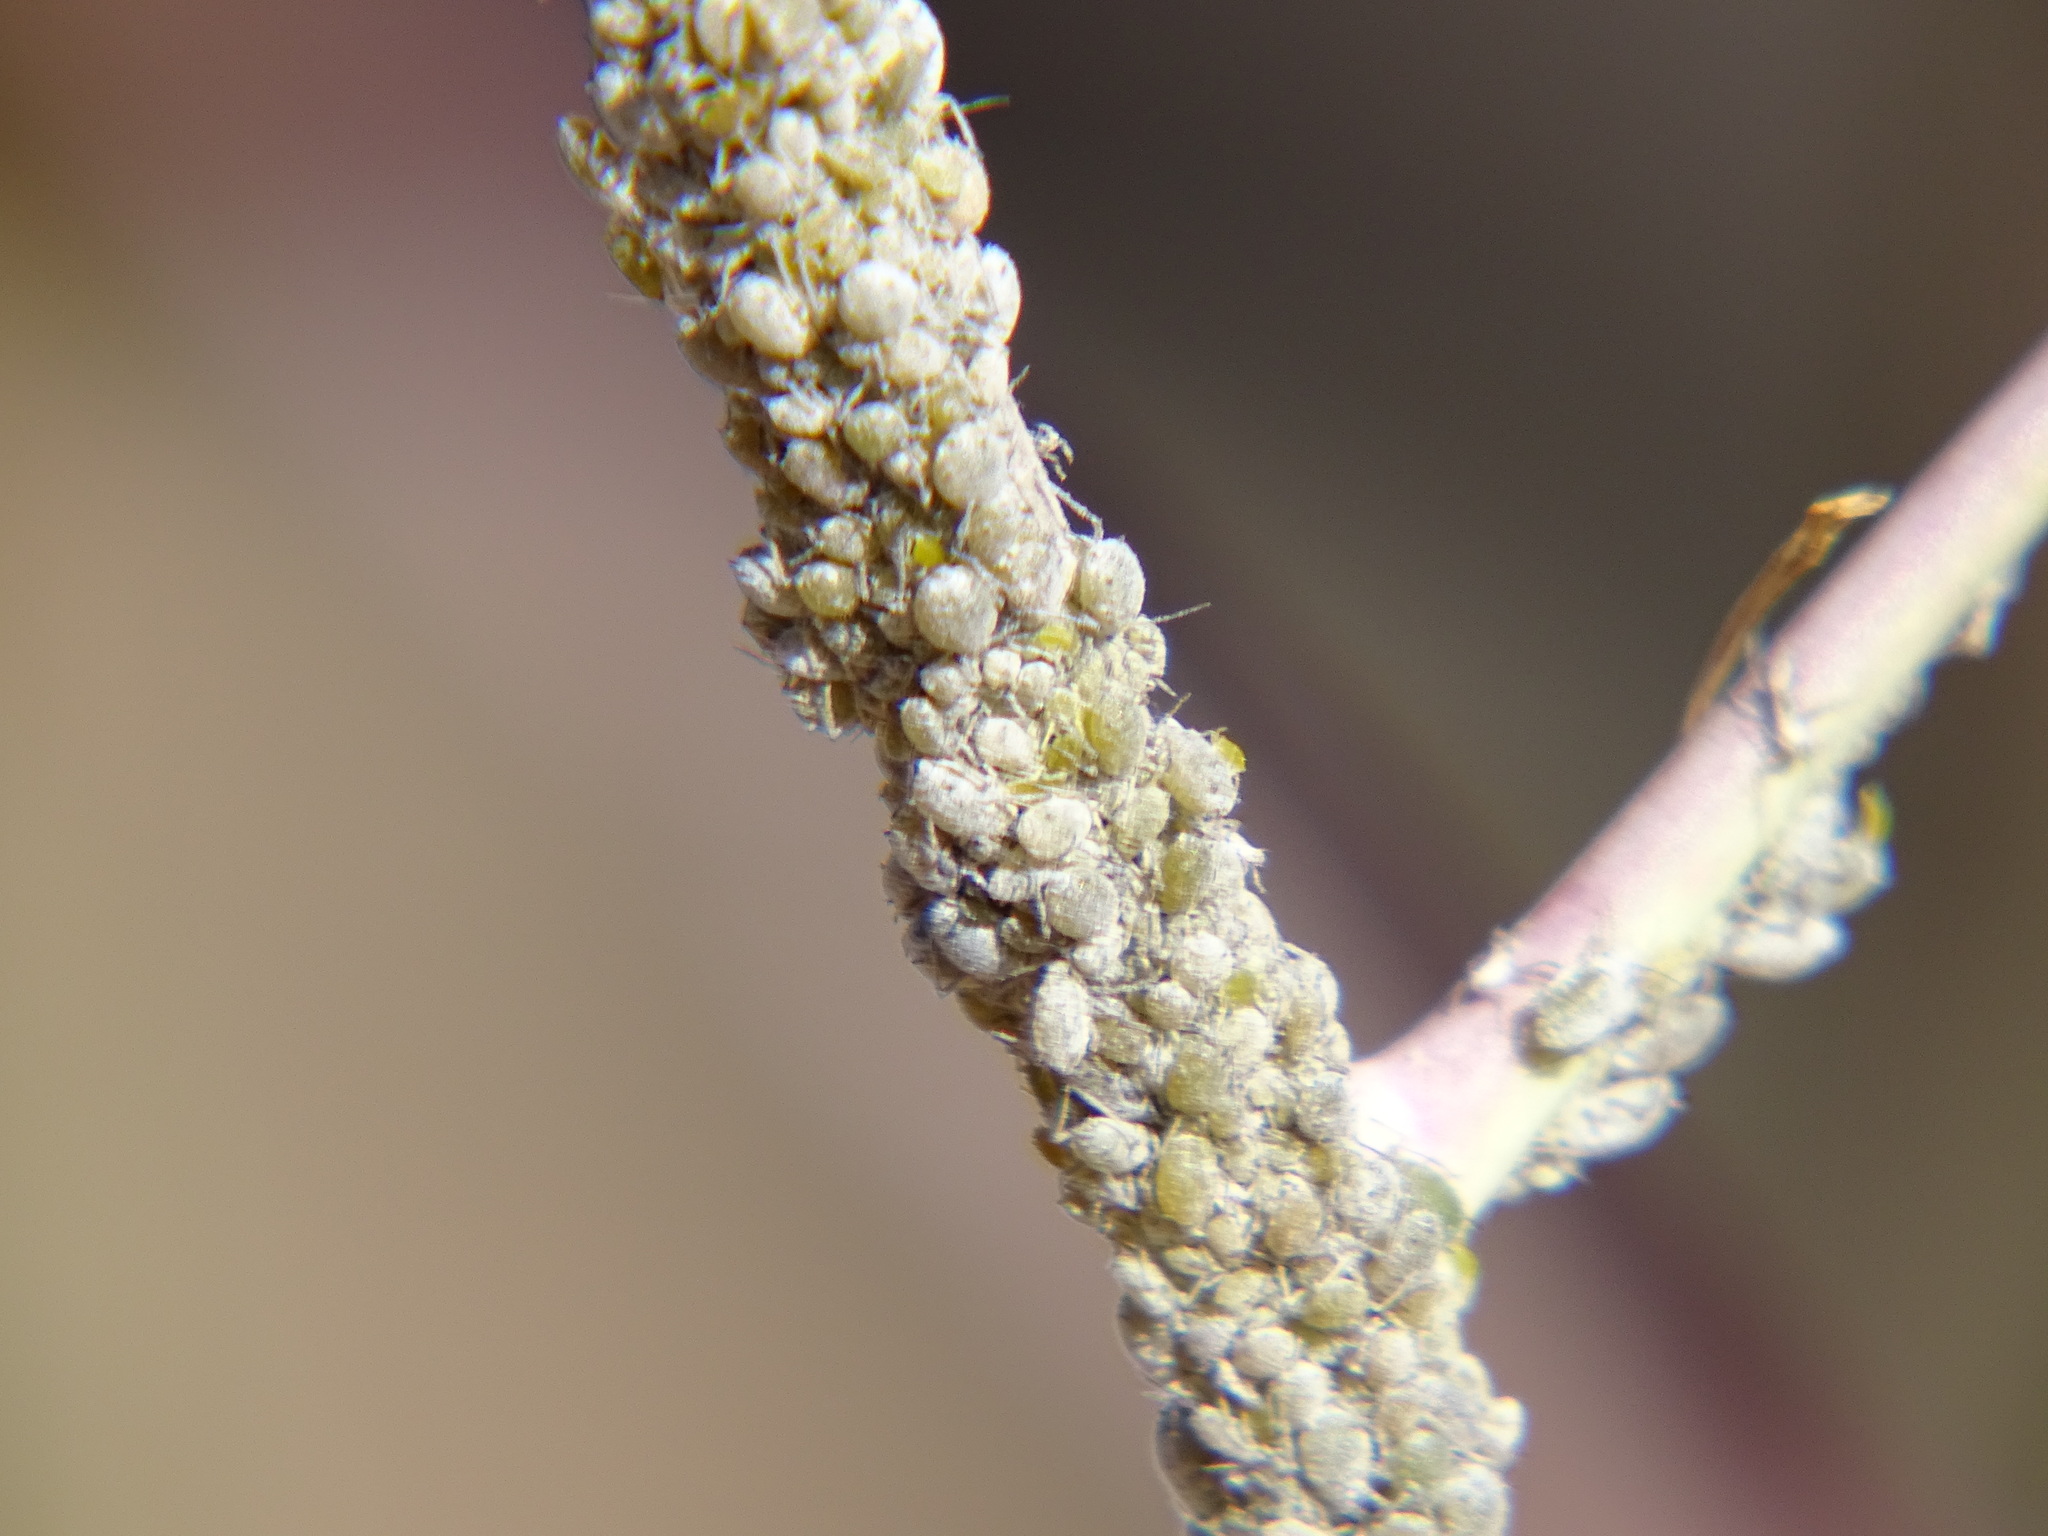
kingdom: Animalia
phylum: Arthropoda
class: Insecta
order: Hemiptera
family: Aphididae
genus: Brevicoryne
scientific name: Brevicoryne brassicae
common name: Cabbage aphid
